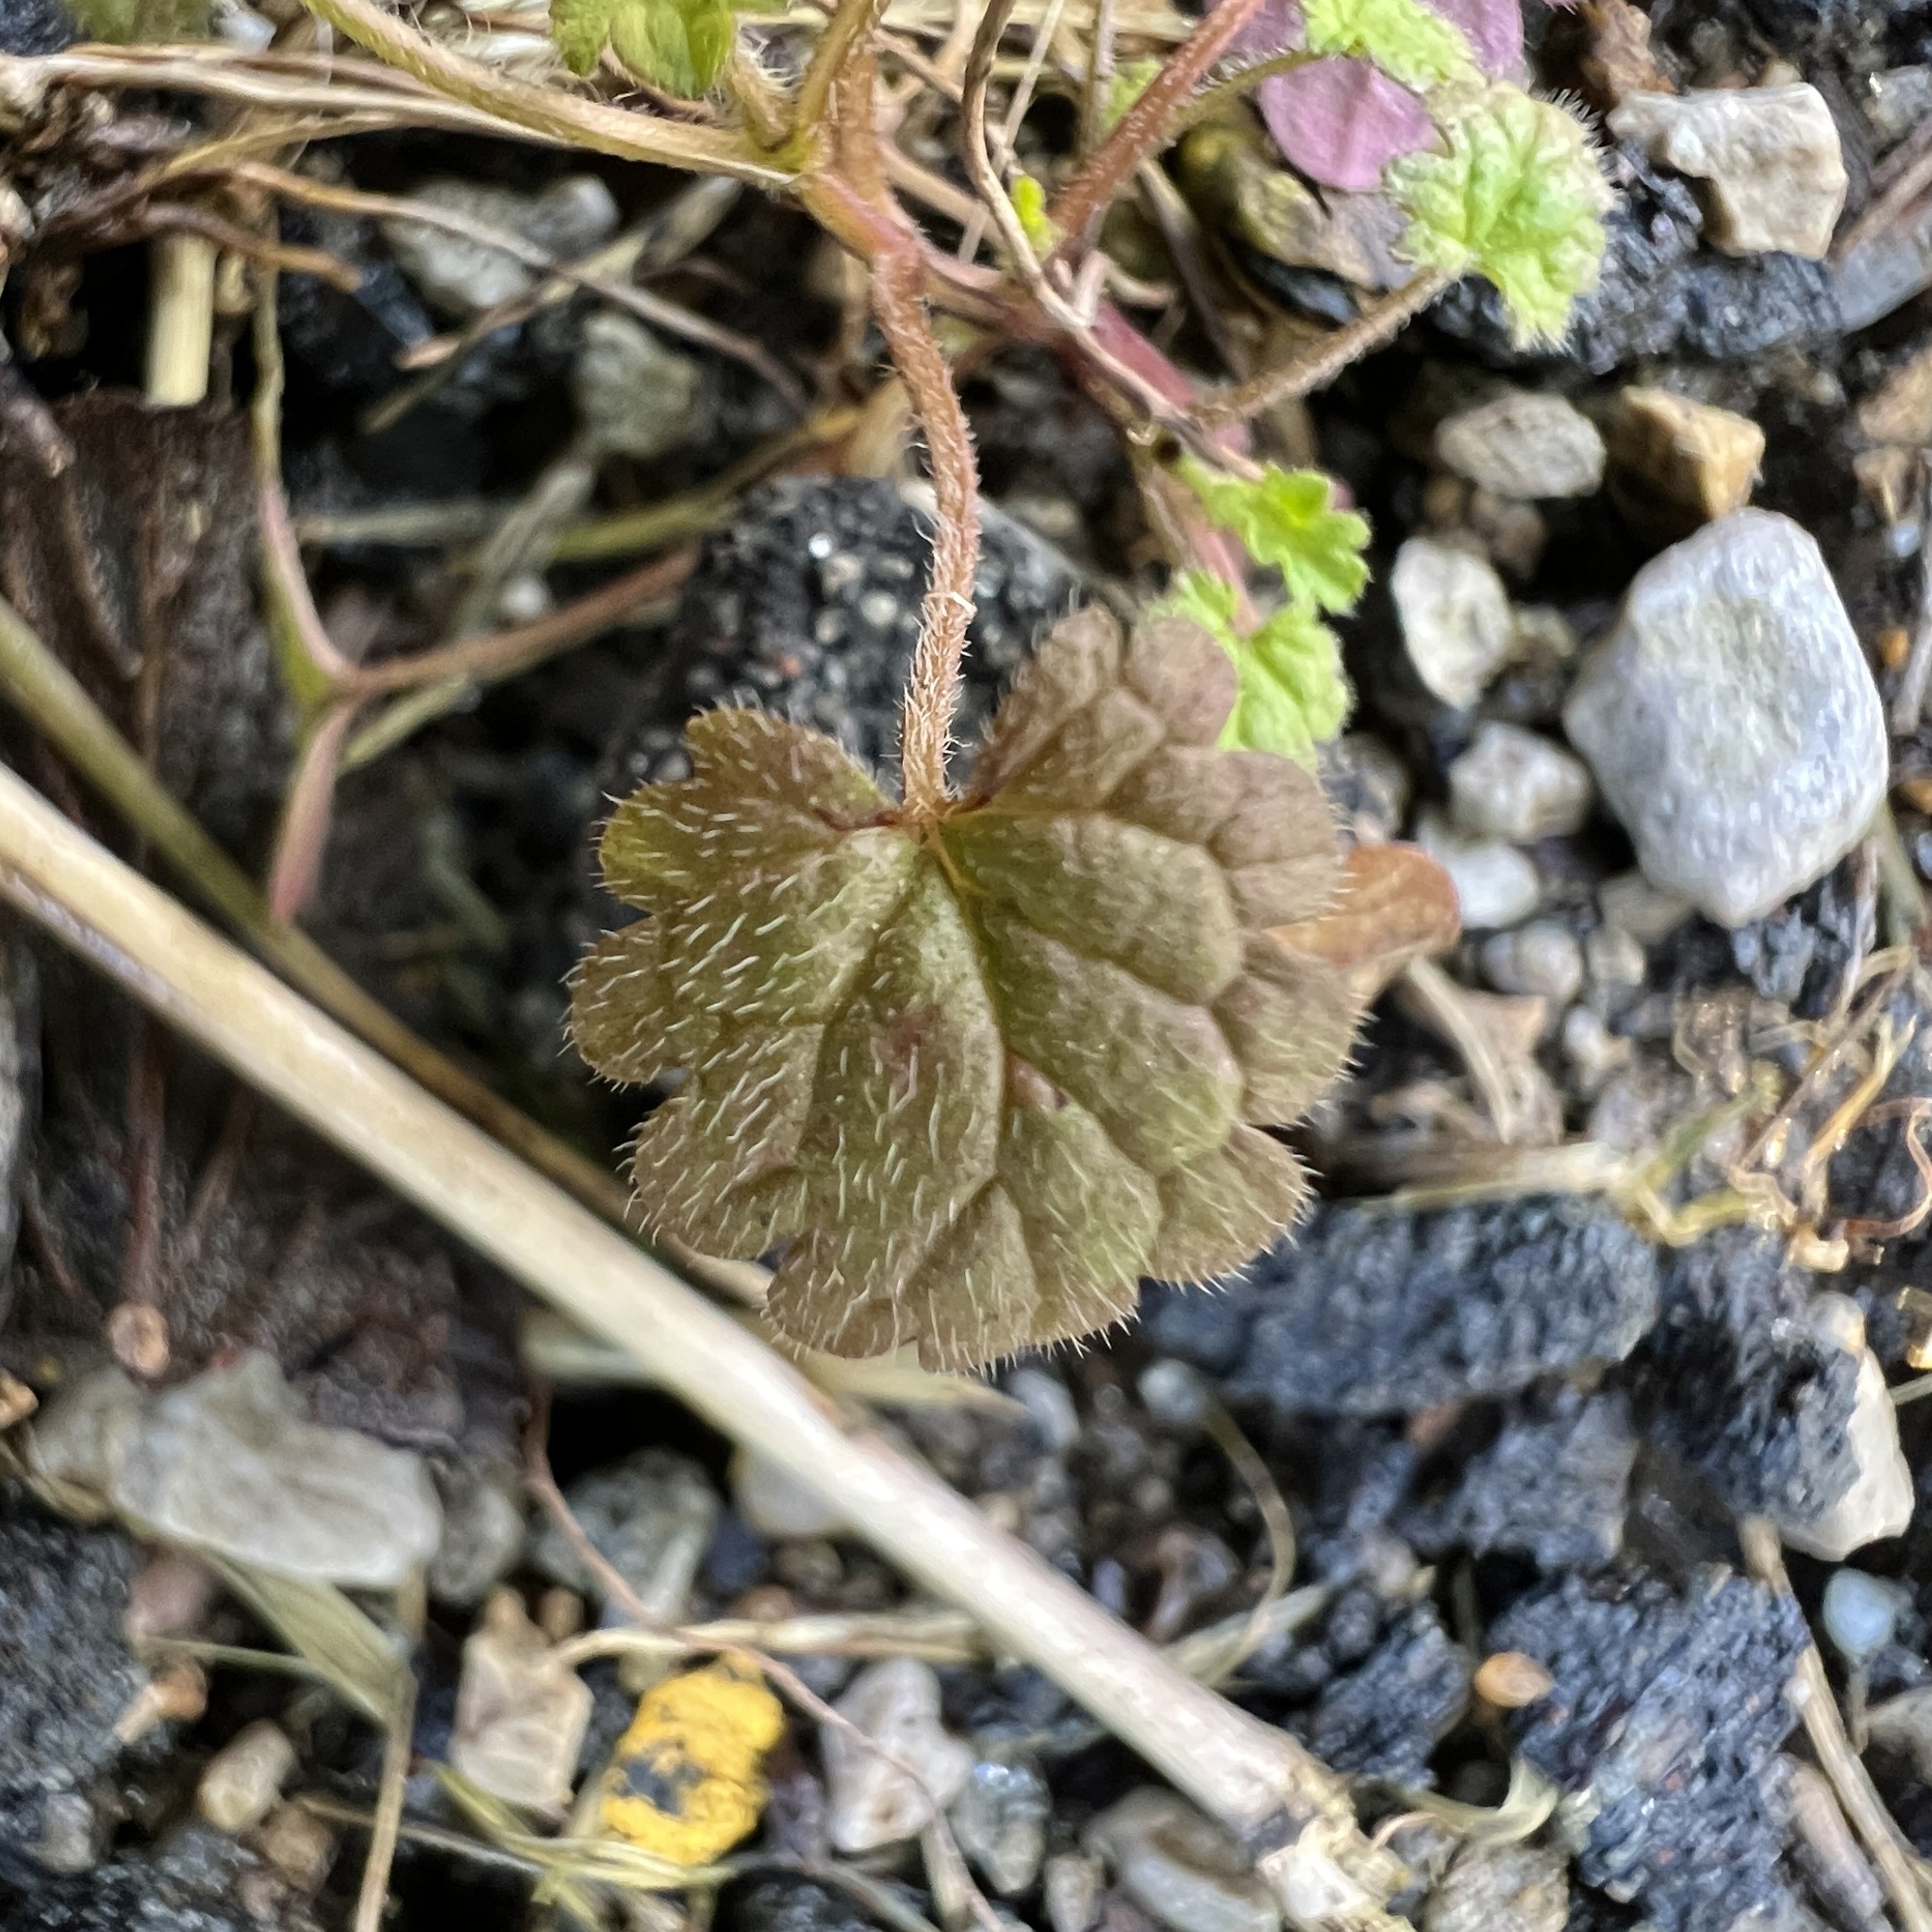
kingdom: Plantae
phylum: Tracheophyta
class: Magnoliopsida
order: Lamiales
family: Lamiaceae
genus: Lamium
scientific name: Lamium amplexicaule
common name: Henbit dead-nettle
